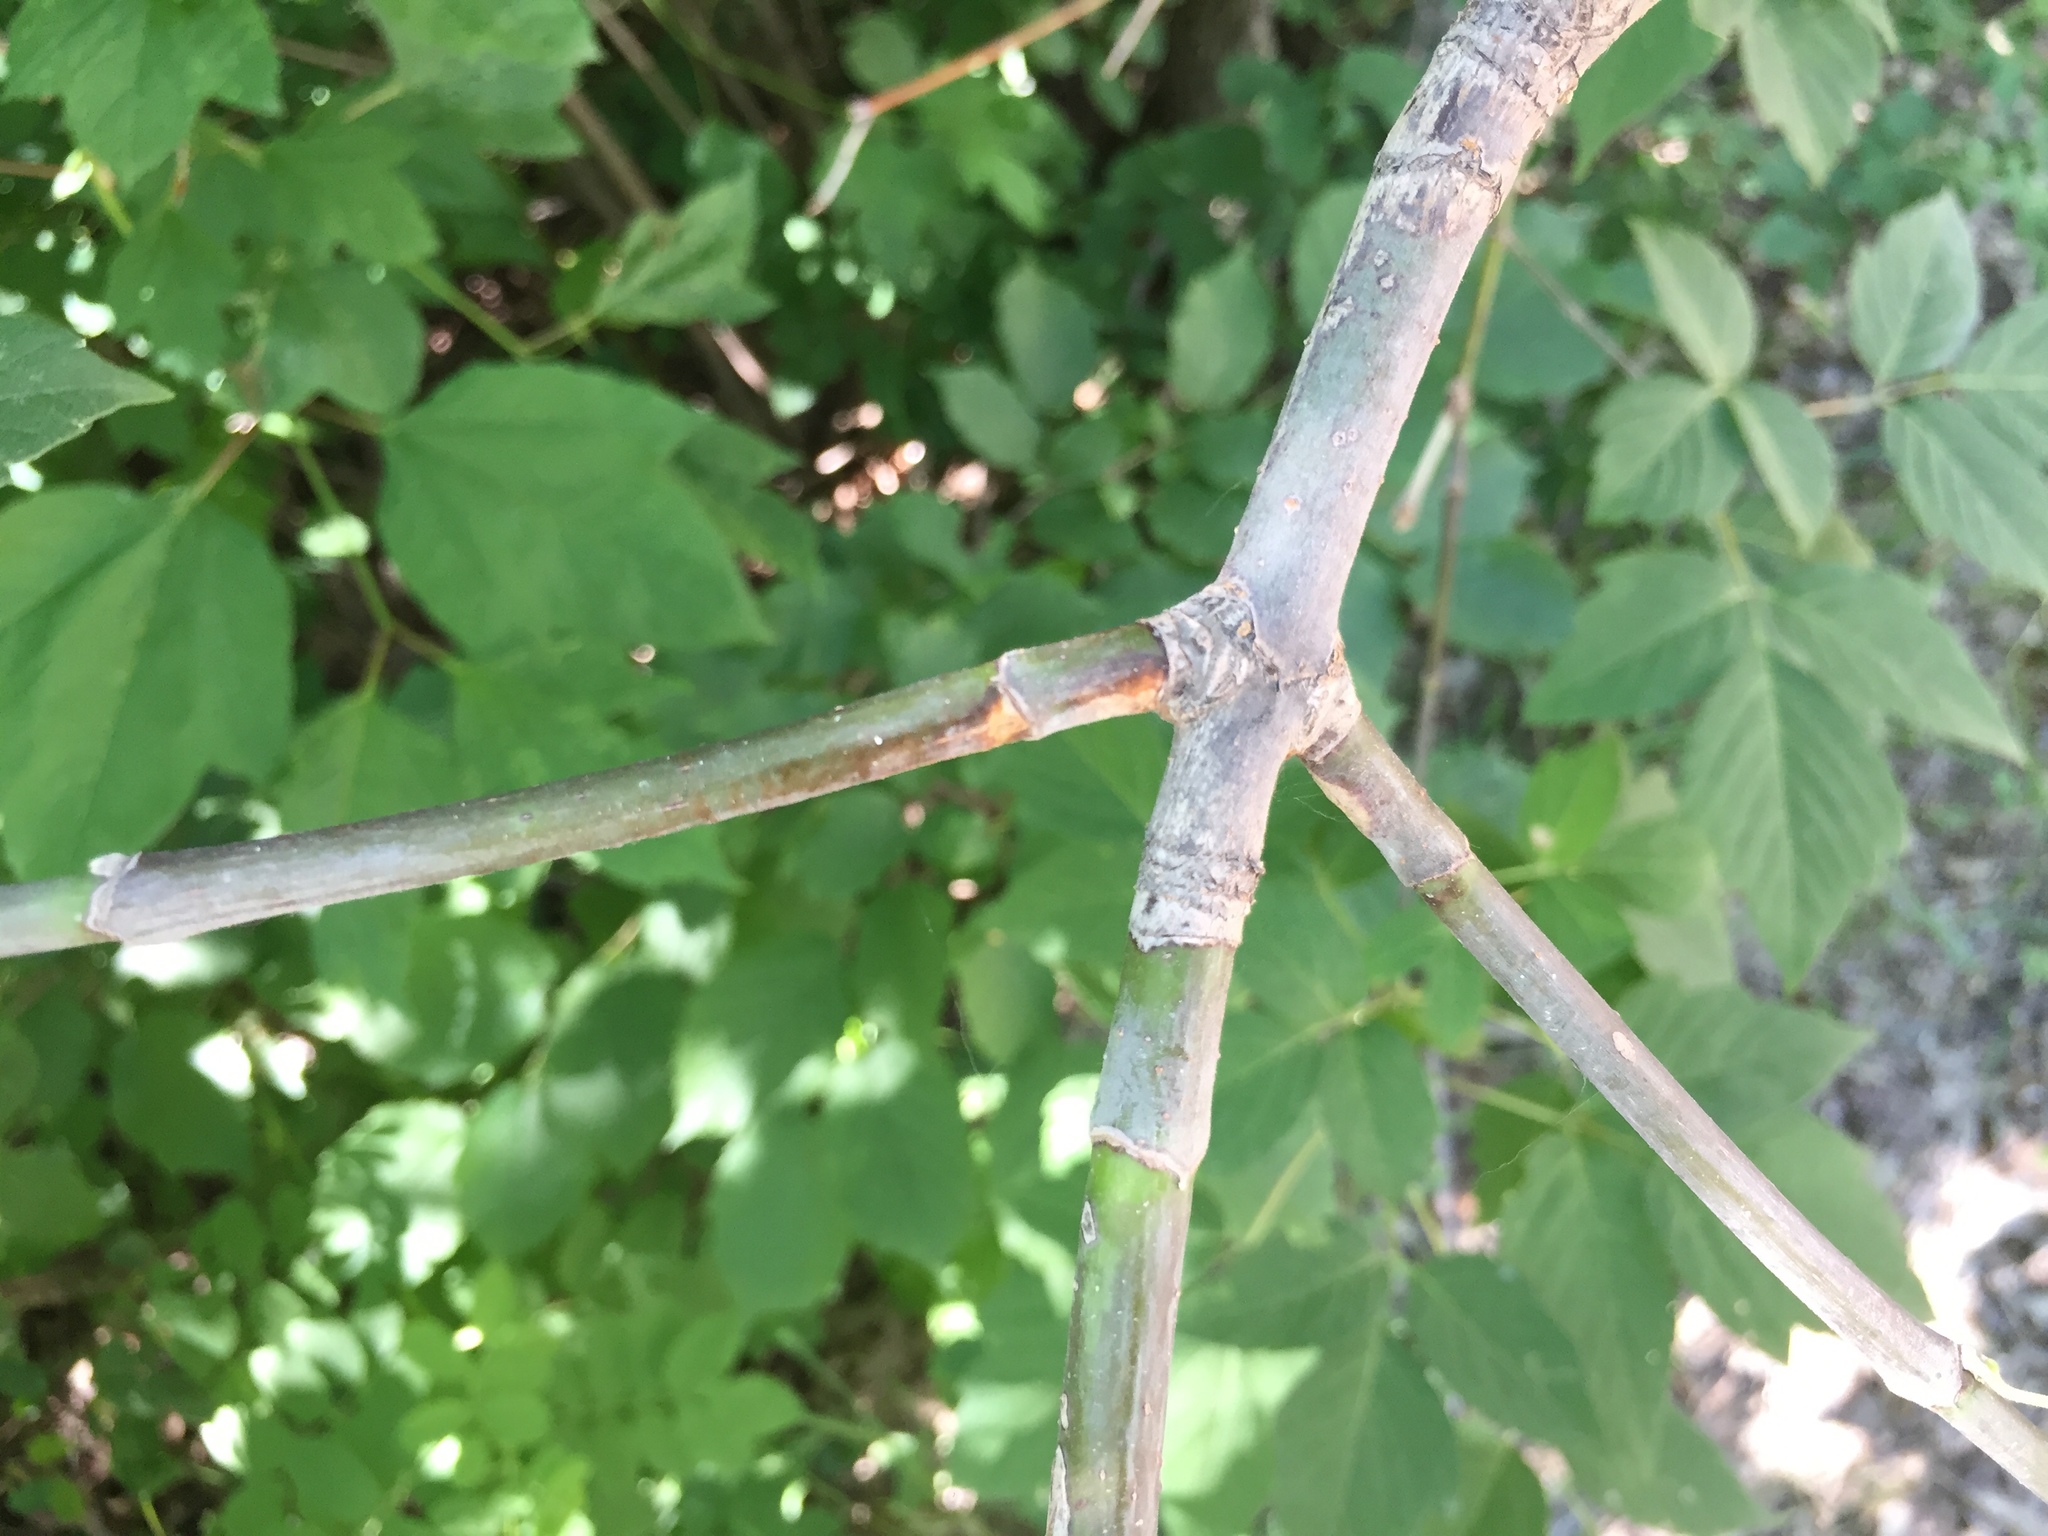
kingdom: Plantae
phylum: Tracheophyta
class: Magnoliopsida
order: Sapindales
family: Sapindaceae
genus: Acer
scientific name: Acer negundo
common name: Ashleaf maple
